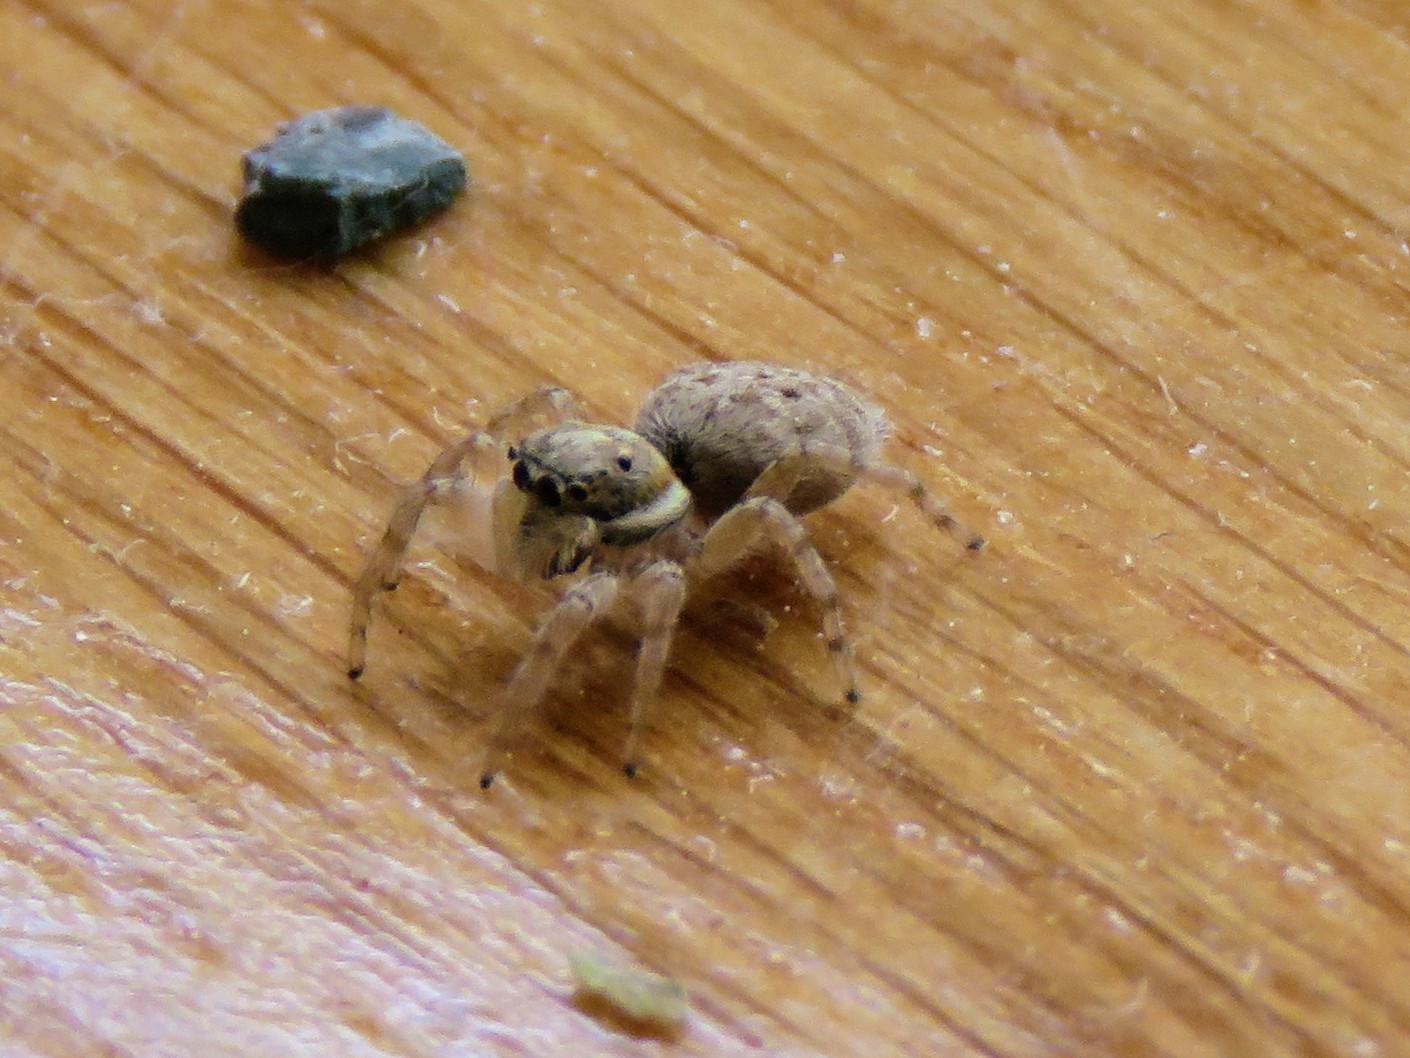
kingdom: Animalia
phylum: Arthropoda
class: Arachnida
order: Araneae
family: Salticidae
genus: Menemerus
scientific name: Menemerus semilimbatus
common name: Jumping spider
